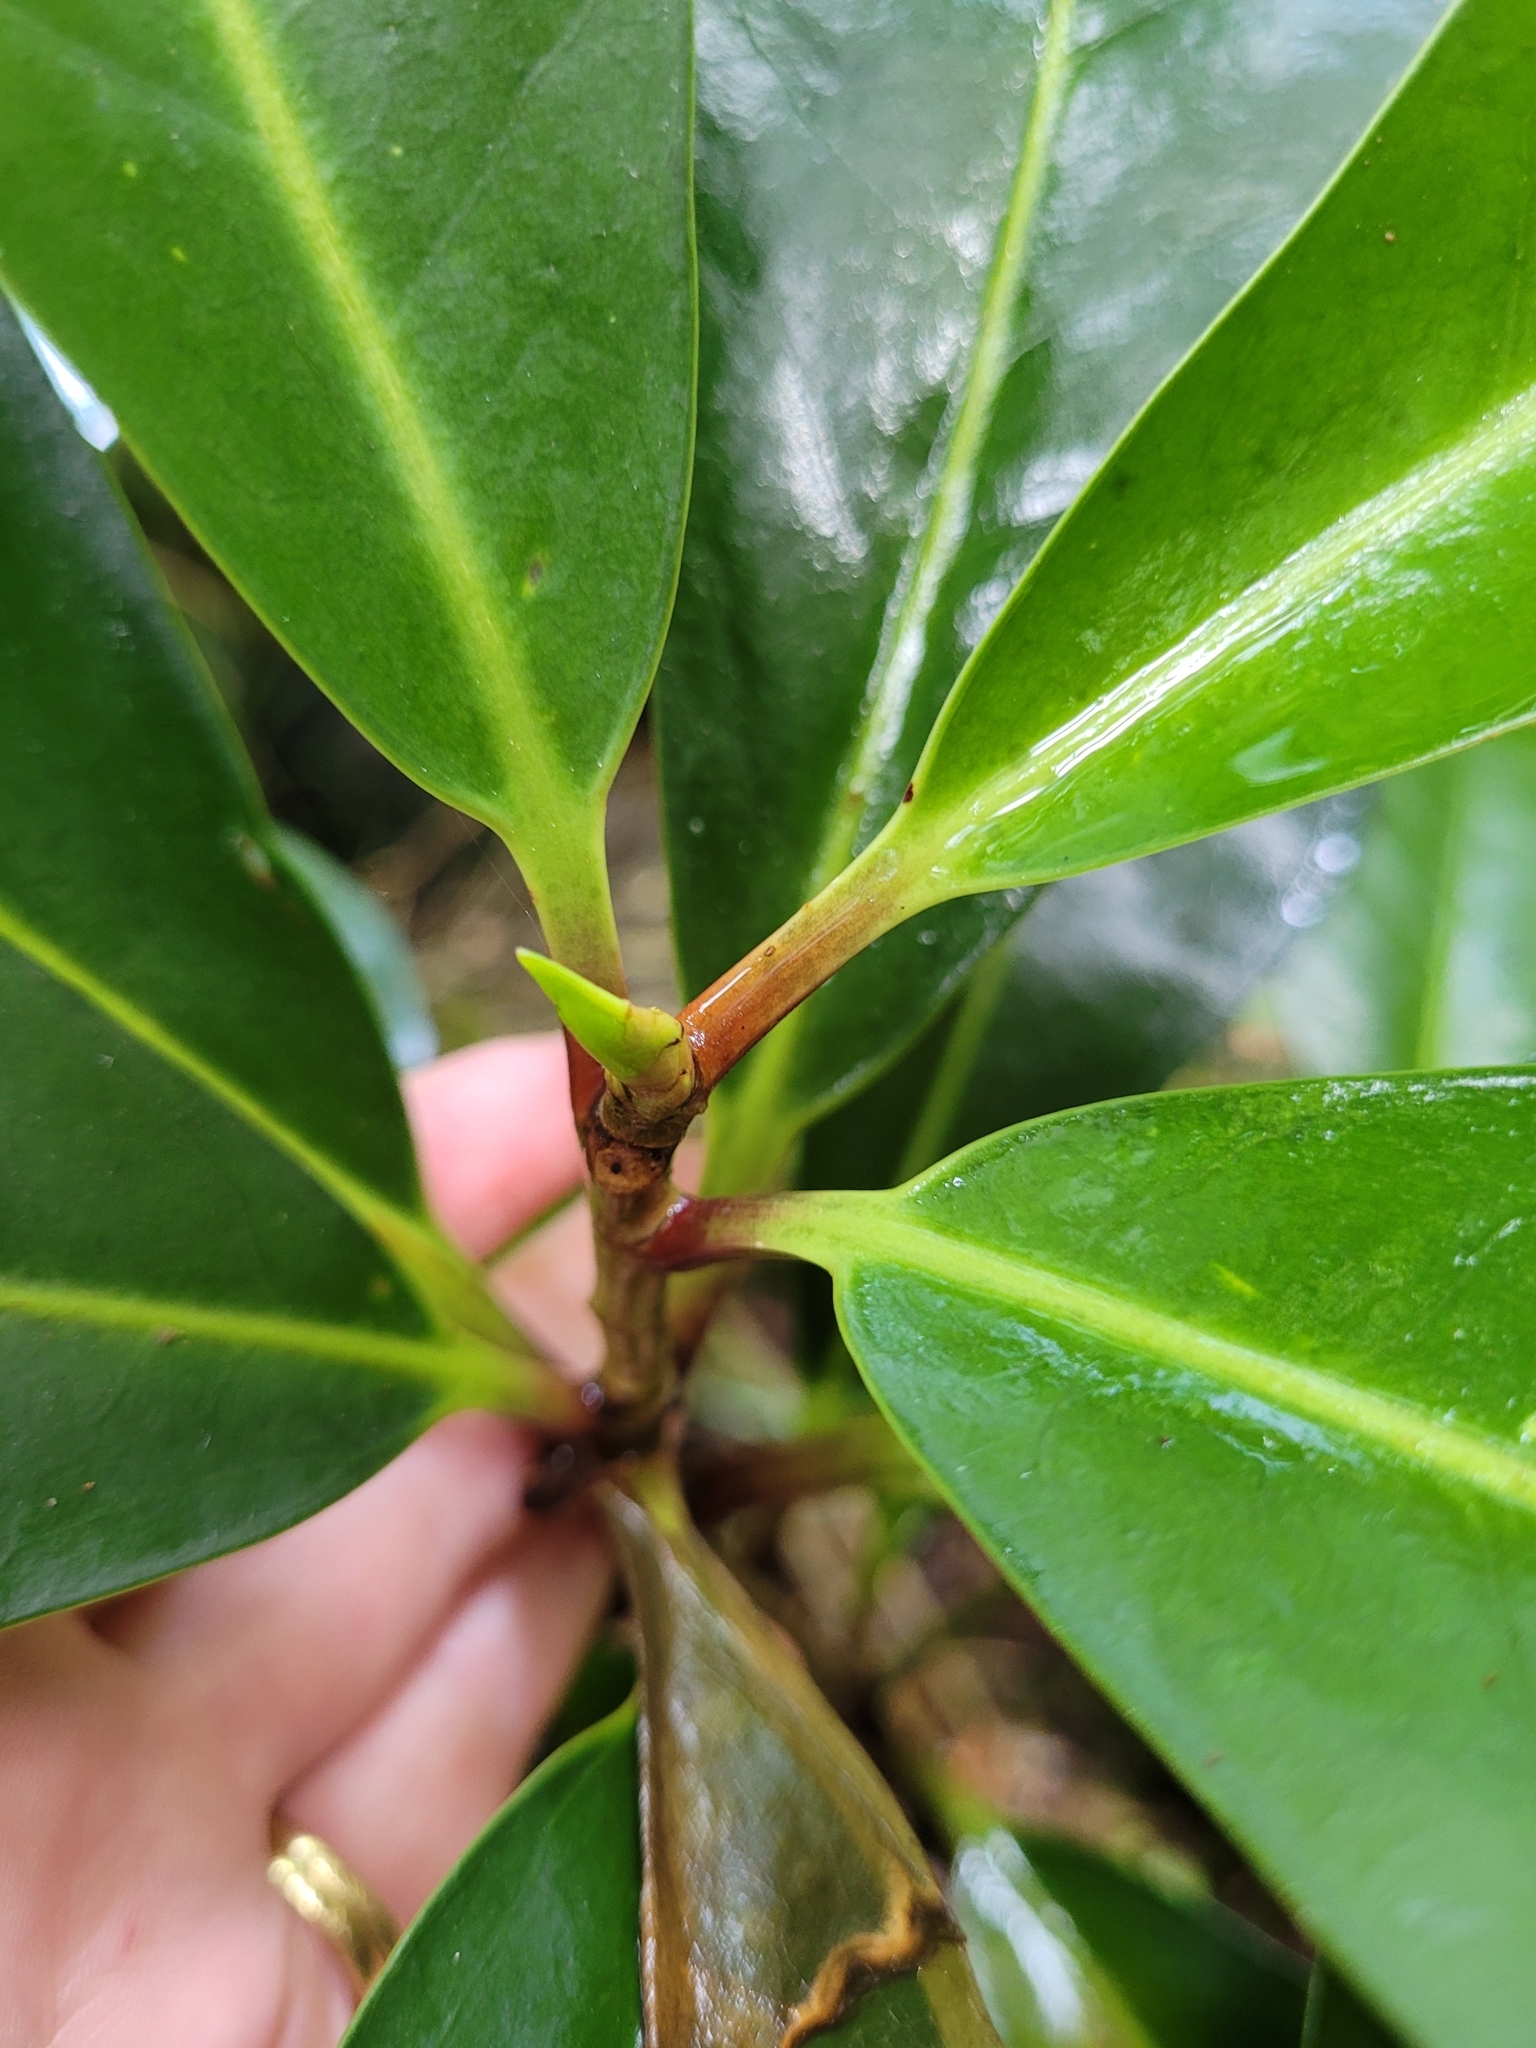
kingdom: Plantae
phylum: Tracheophyta
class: Magnoliopsida
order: Cucurbitales
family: Corynocarpaceae
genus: Corynocarpus
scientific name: Corynocarpus laevigatus
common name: New zealand laurel
